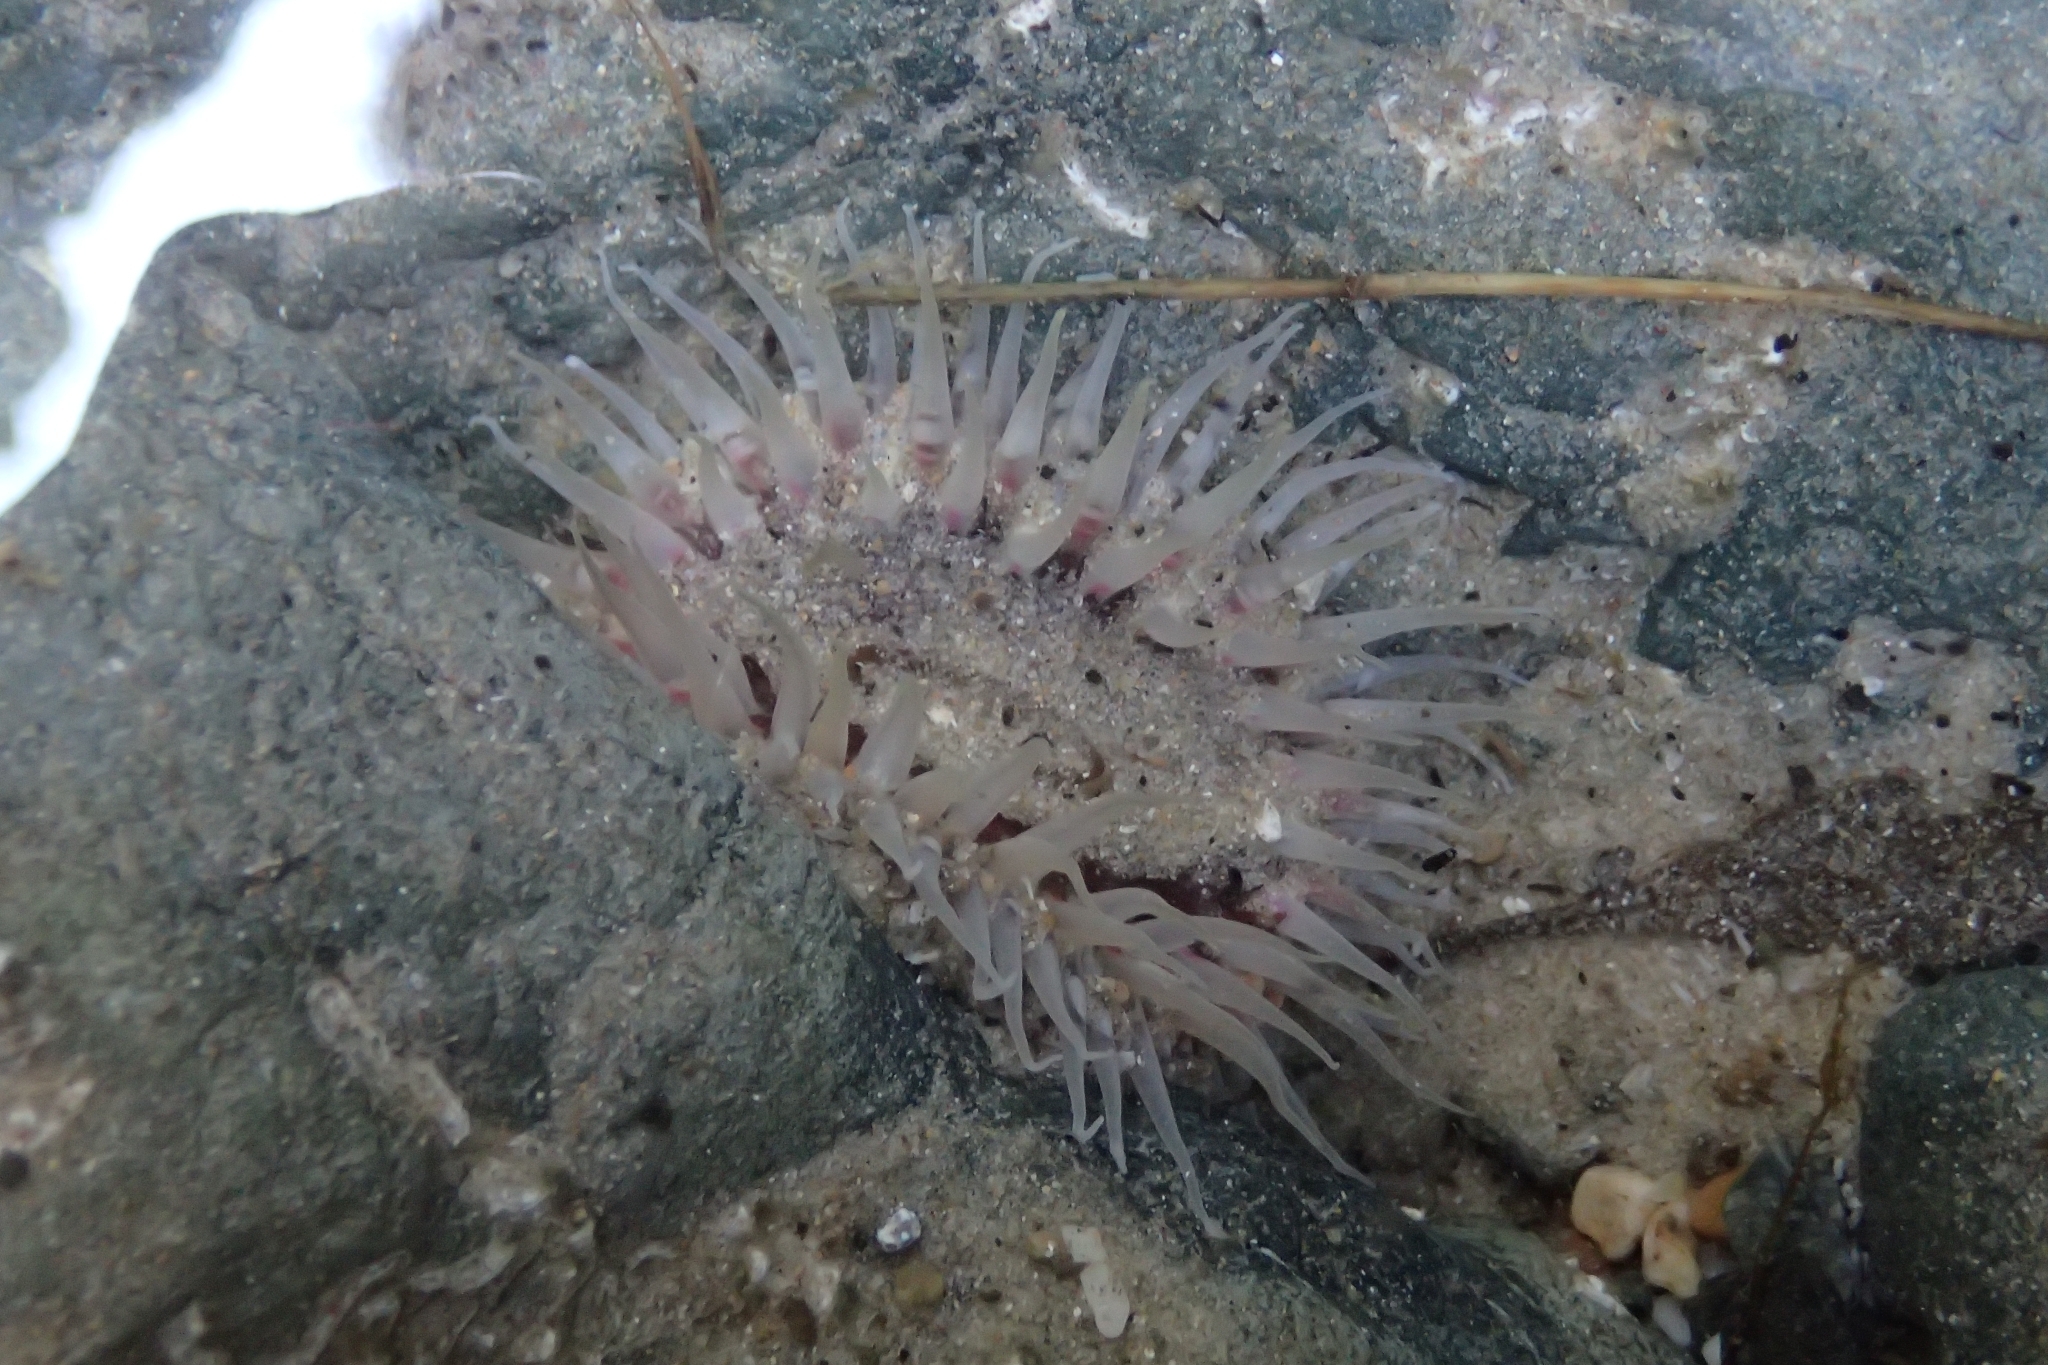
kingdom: Animalia
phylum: Cnidaria
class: Anthozoa
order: Actiniaria
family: Actiniidae
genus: Oulactis
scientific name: Oulactis muscosa
